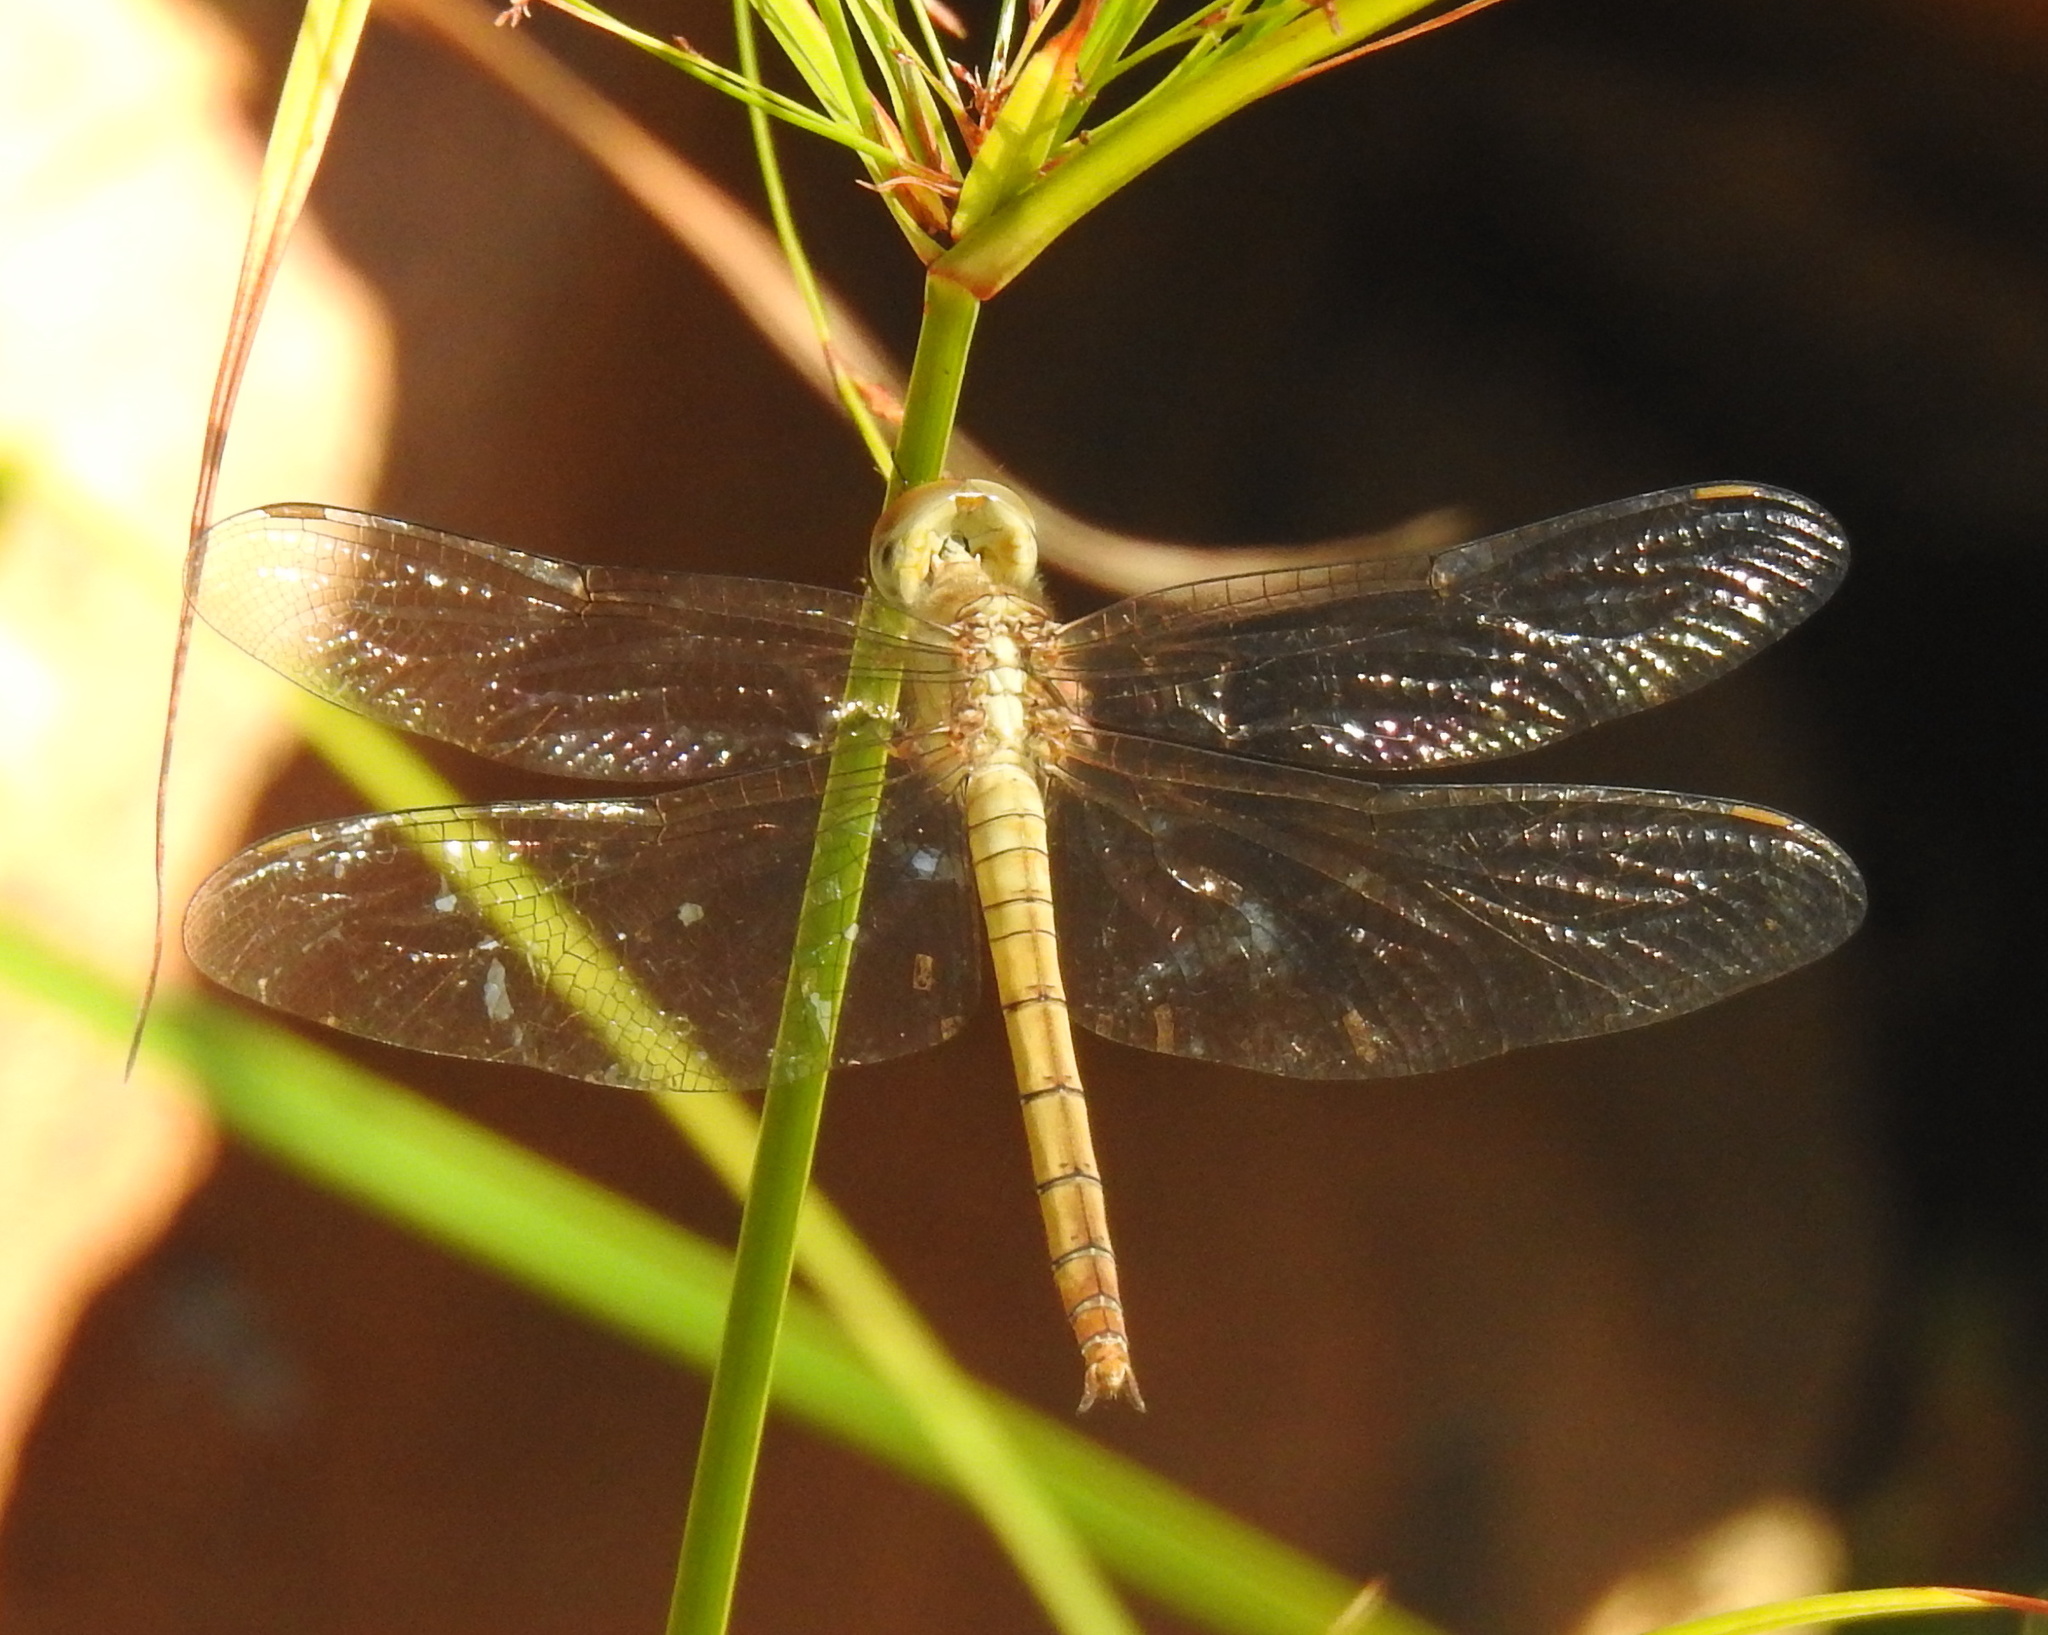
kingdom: Animalia
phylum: Arthropoda
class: Insecta
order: Odonata
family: Libellulidae
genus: Tholymis
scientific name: Tholymis tillarga
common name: Coral-tailed cloud wing
